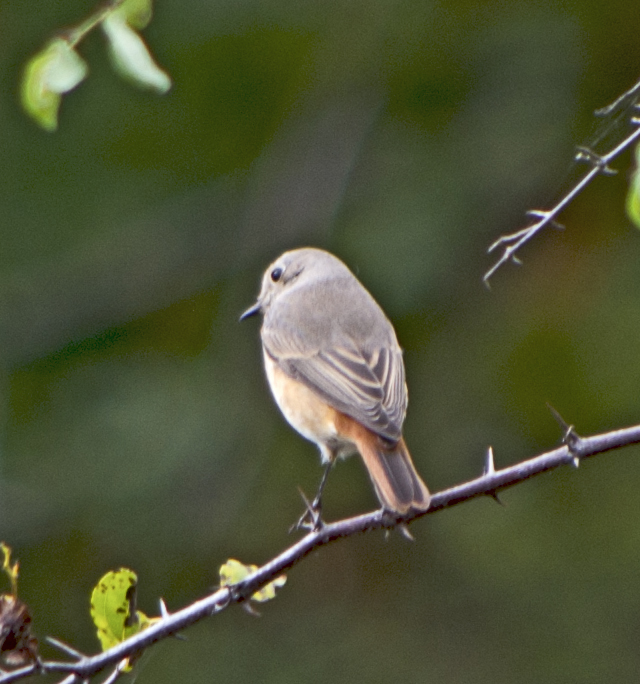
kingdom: Animalia
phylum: Chordata
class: Aves
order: Passeriformes
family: Muscicapidae
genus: Phoenicurus
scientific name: Phoenicurus phoenicurus
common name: Common redstart
